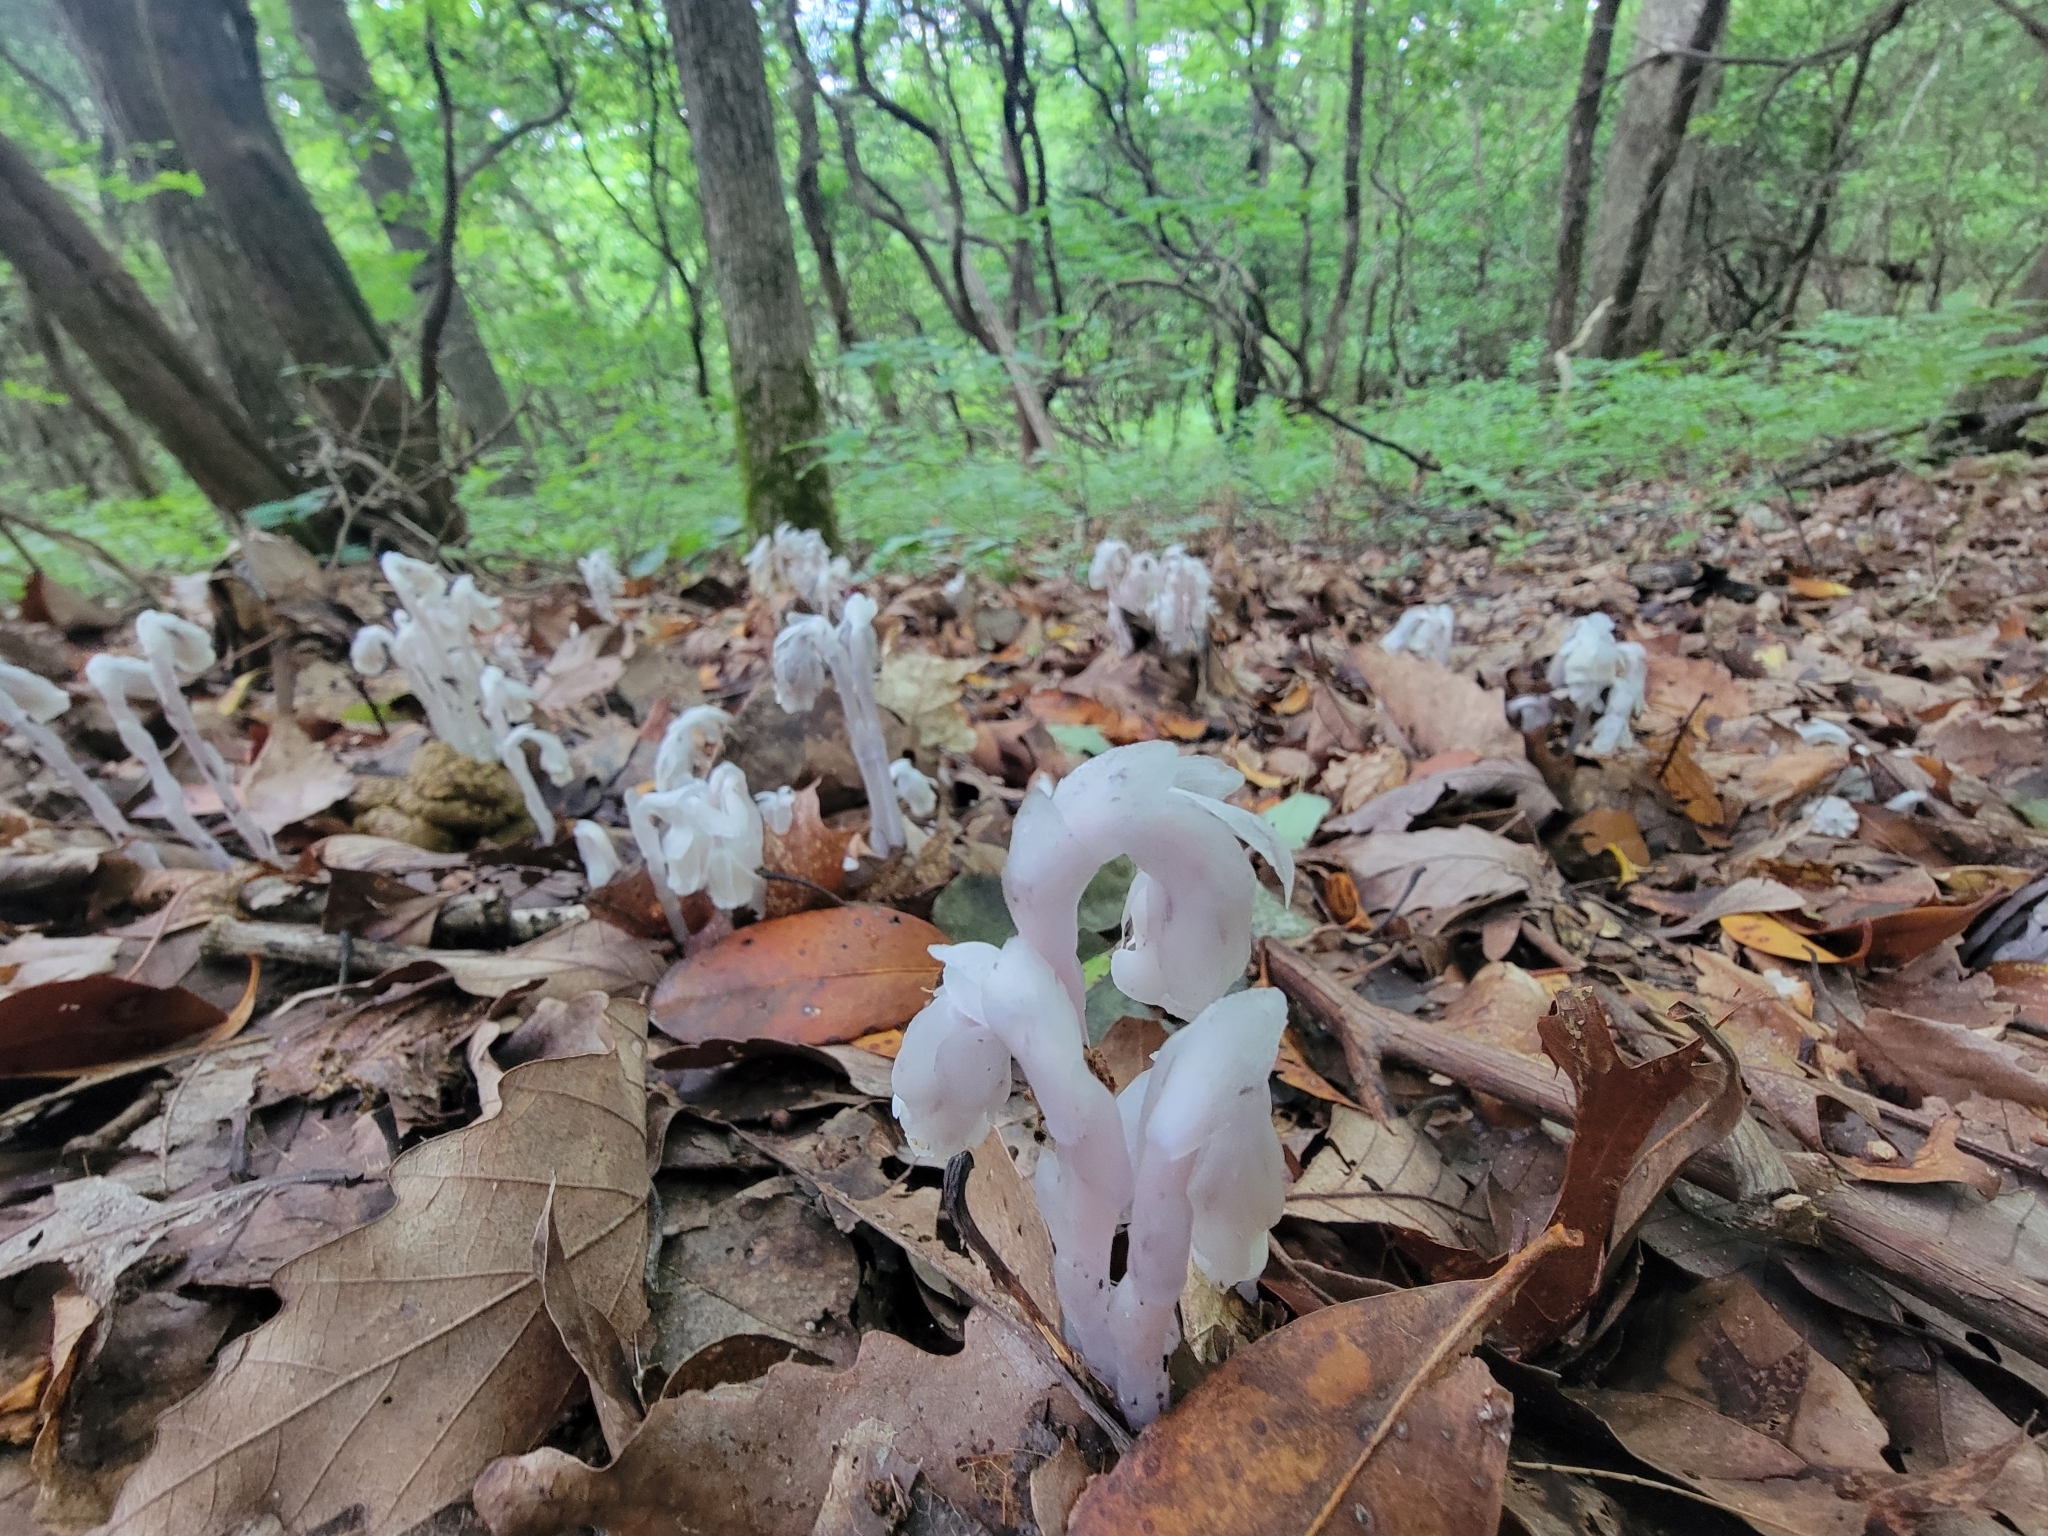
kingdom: Plantae
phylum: Tracheophyta
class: Magnoliopsida
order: Ericales
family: Ericaceae
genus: Monotropa
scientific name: Monotropa uniflora
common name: Convulsion root
